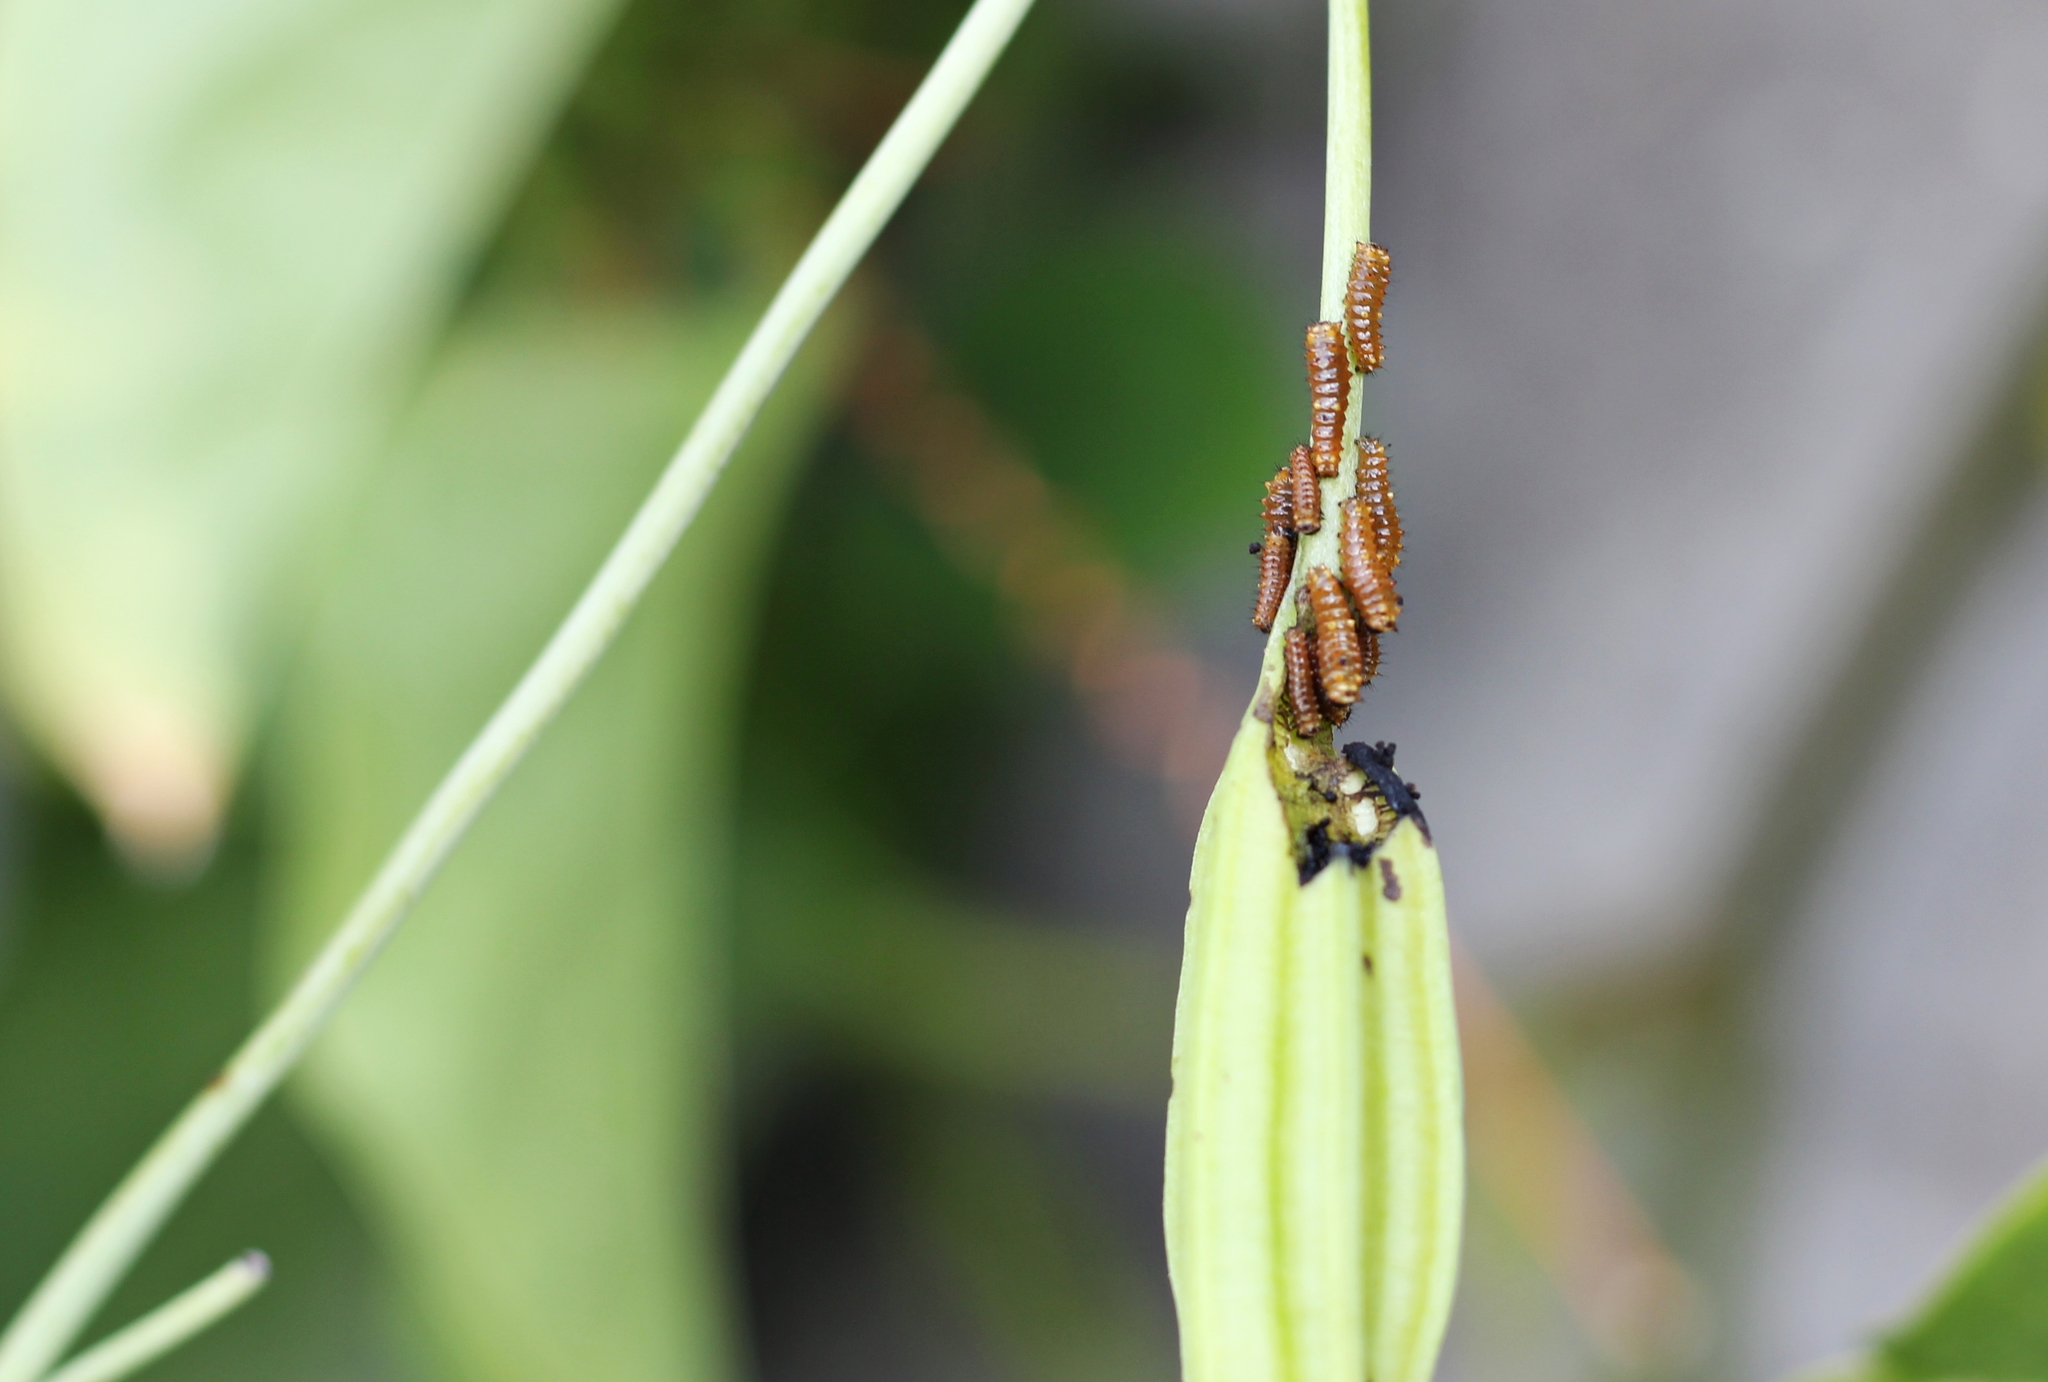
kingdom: Animalia
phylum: Arthropoda
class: Insecta
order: Lepidoptera
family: Papilionidae
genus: Battus
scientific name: Battus polydamas
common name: Polydamas swallowtail
